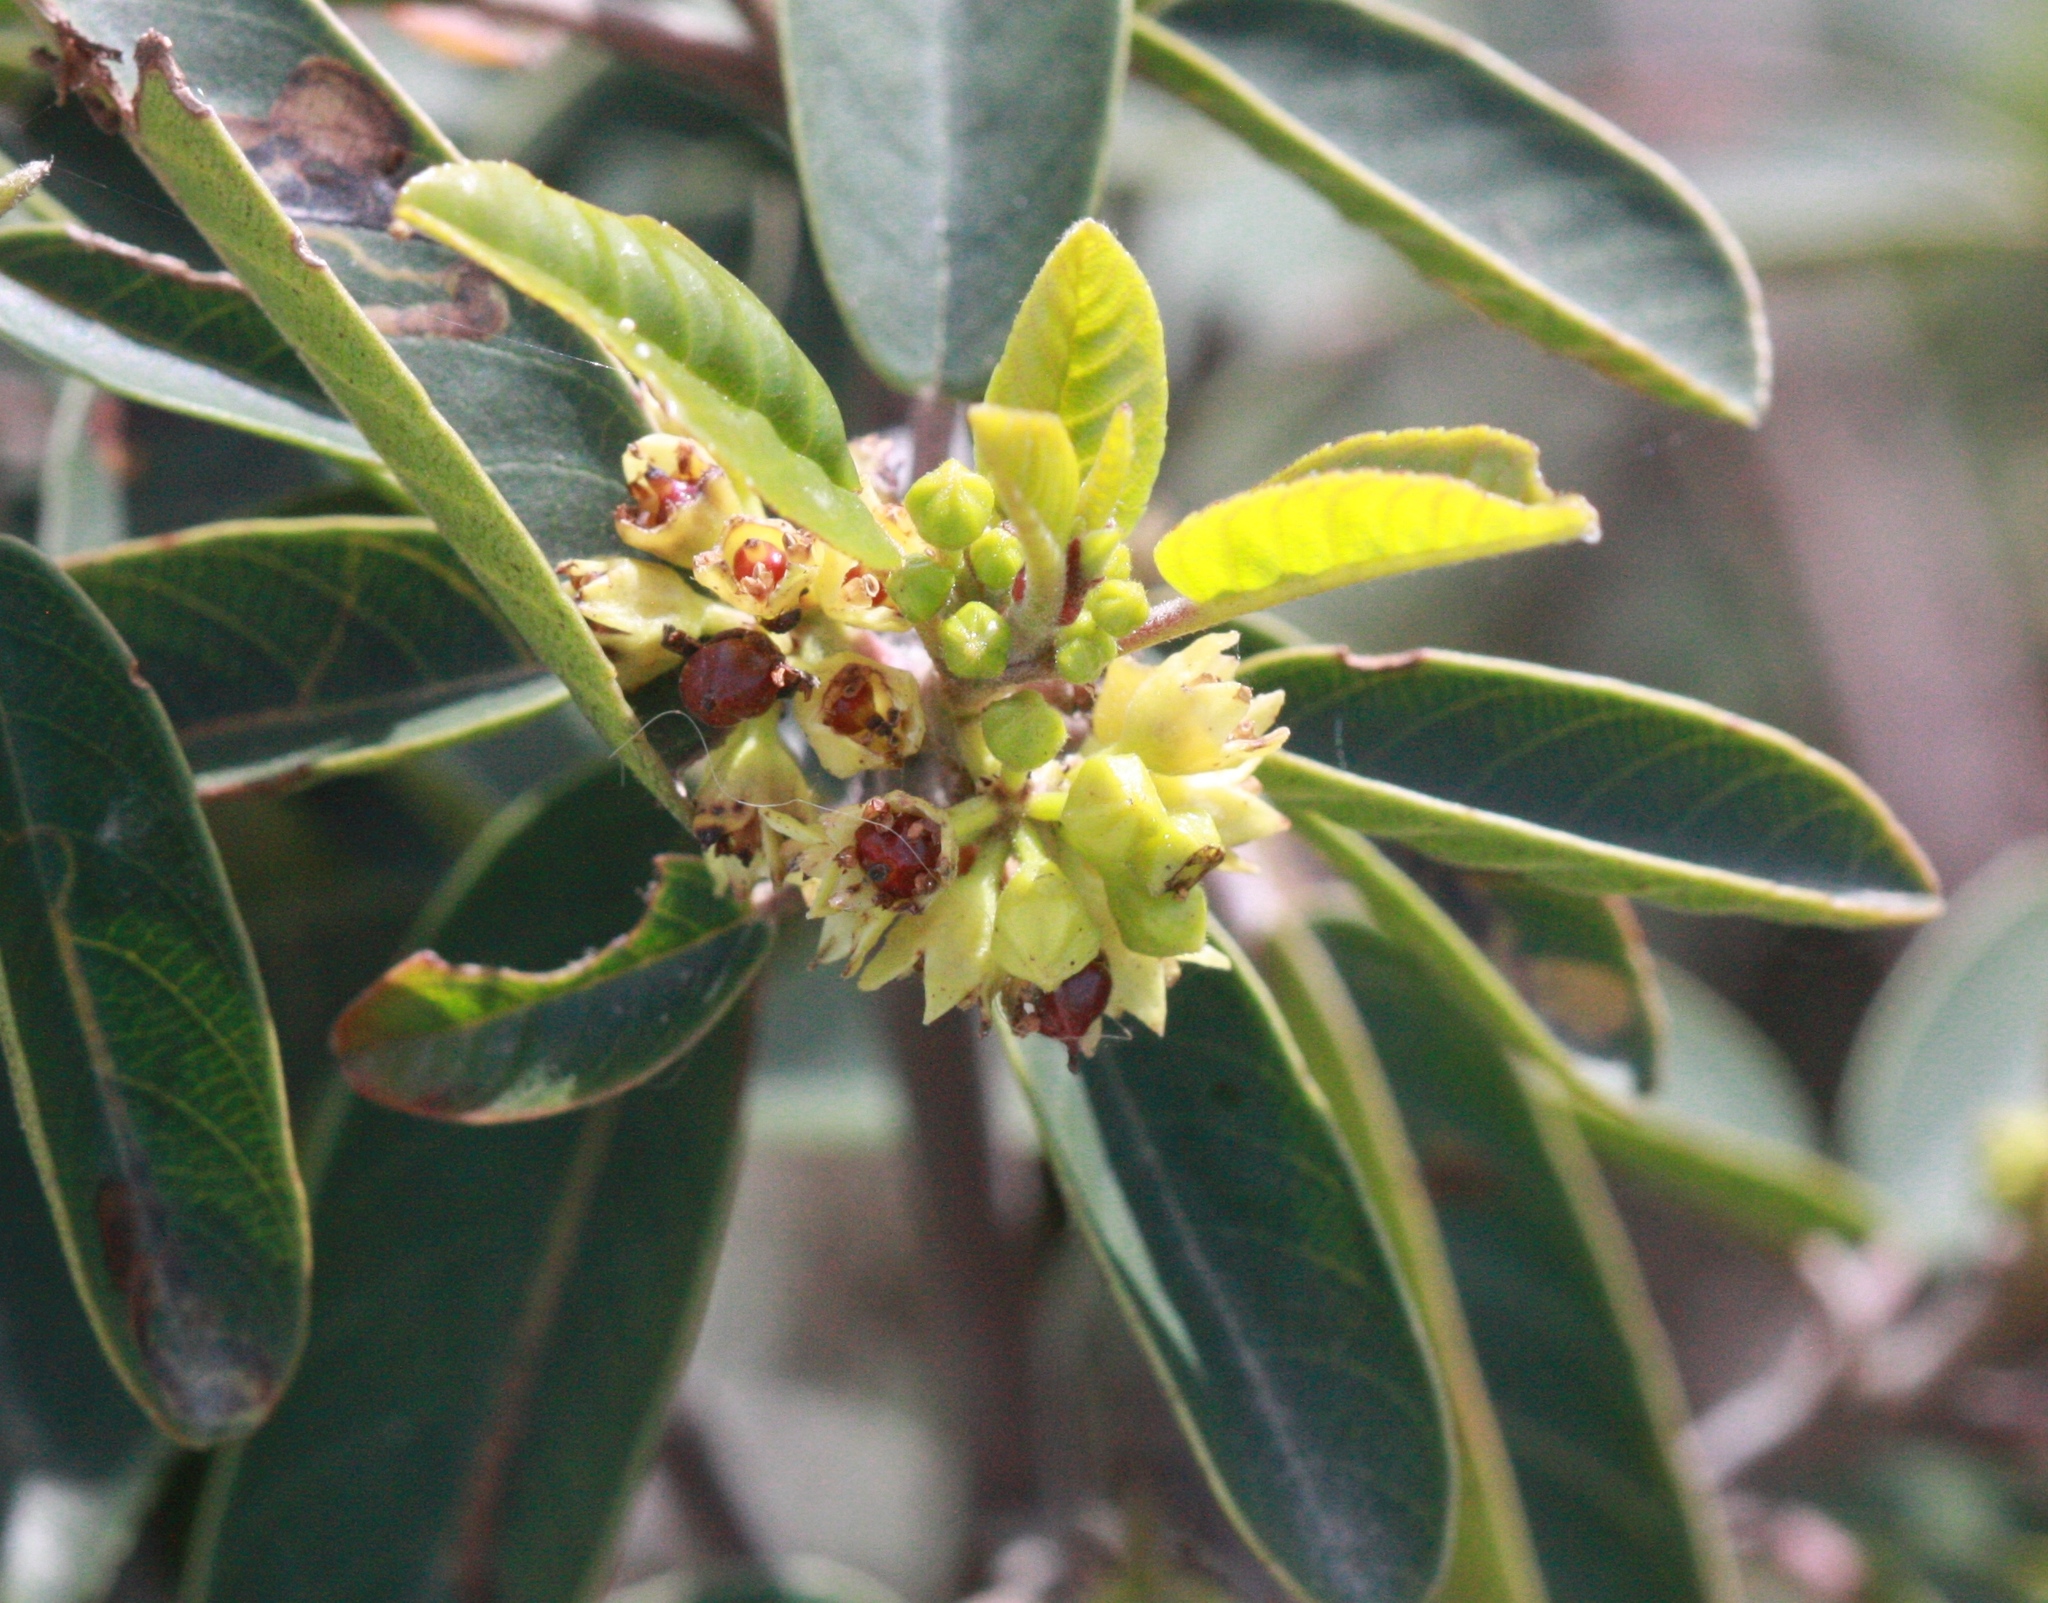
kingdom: Plantae
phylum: Tracheophyta
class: Magnoliopsida
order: Rosales
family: Rhamnaceae
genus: Frangula
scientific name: Frangula californica
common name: California buckthorn
